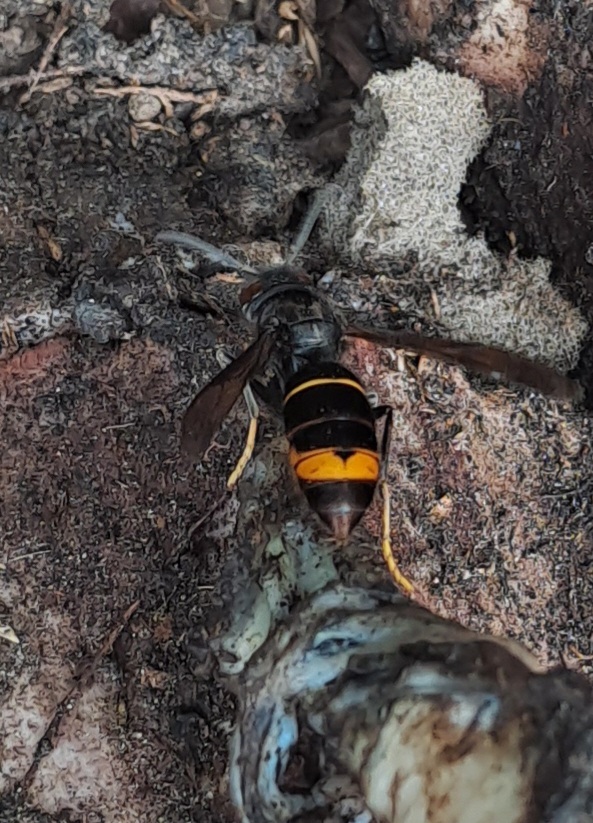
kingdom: Animalia
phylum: Arthropoda
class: Insecta
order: Hymenoptera
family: Vespidae
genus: Vespa
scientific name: Vespa velutina
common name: Asian hornet
